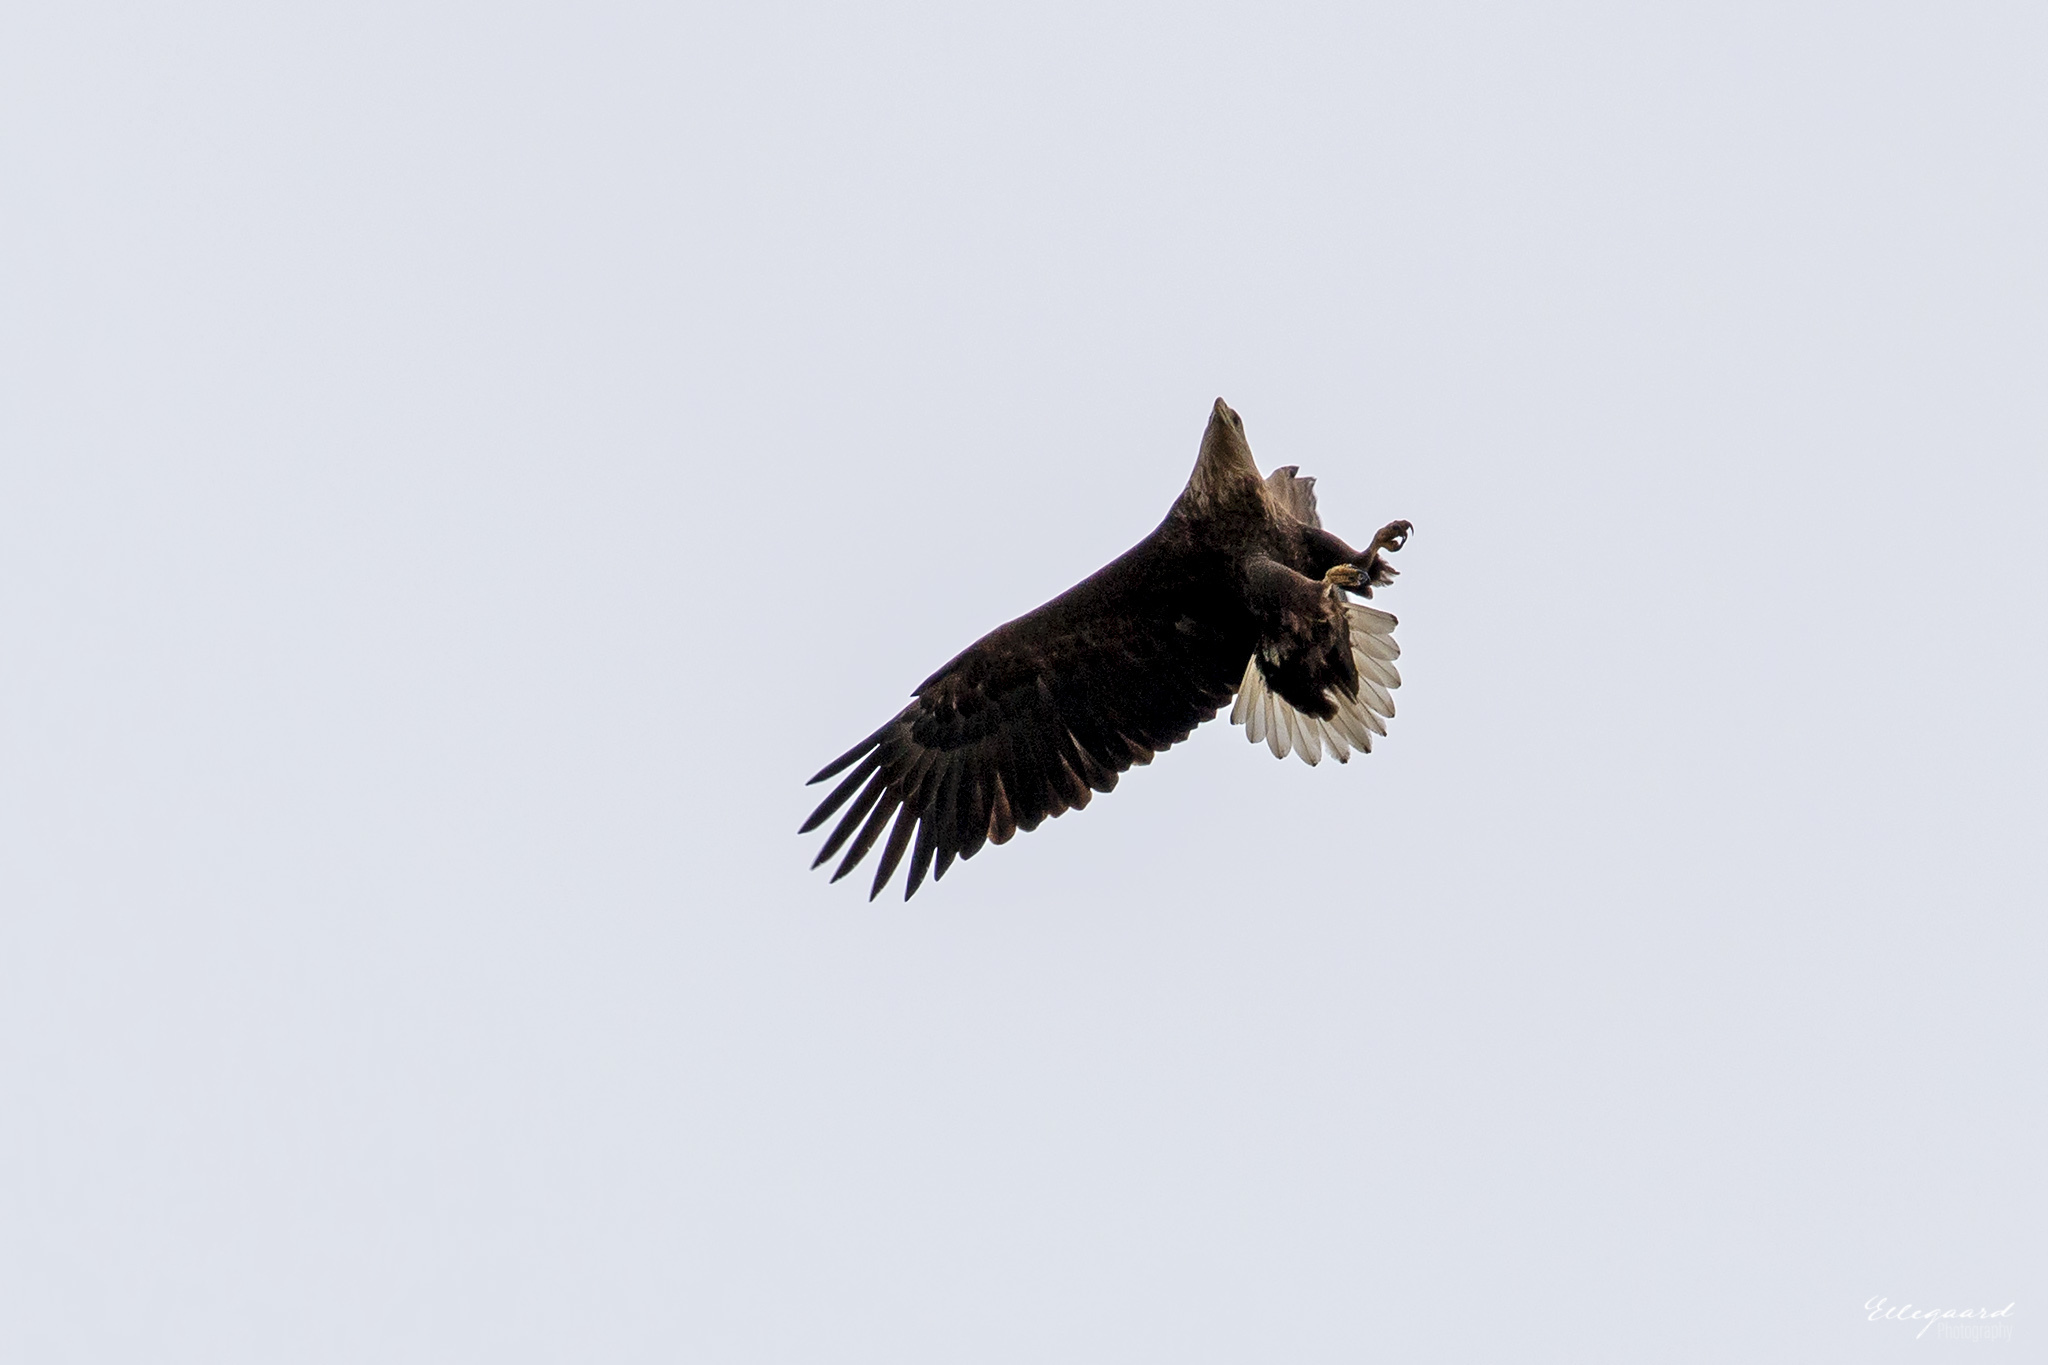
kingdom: Animalia
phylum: Chordata
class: Aves
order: Accipitriformes
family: Accipitridae
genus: Haliaeetus
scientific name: Haliaeetus albicilla
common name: White-tailed eagle
